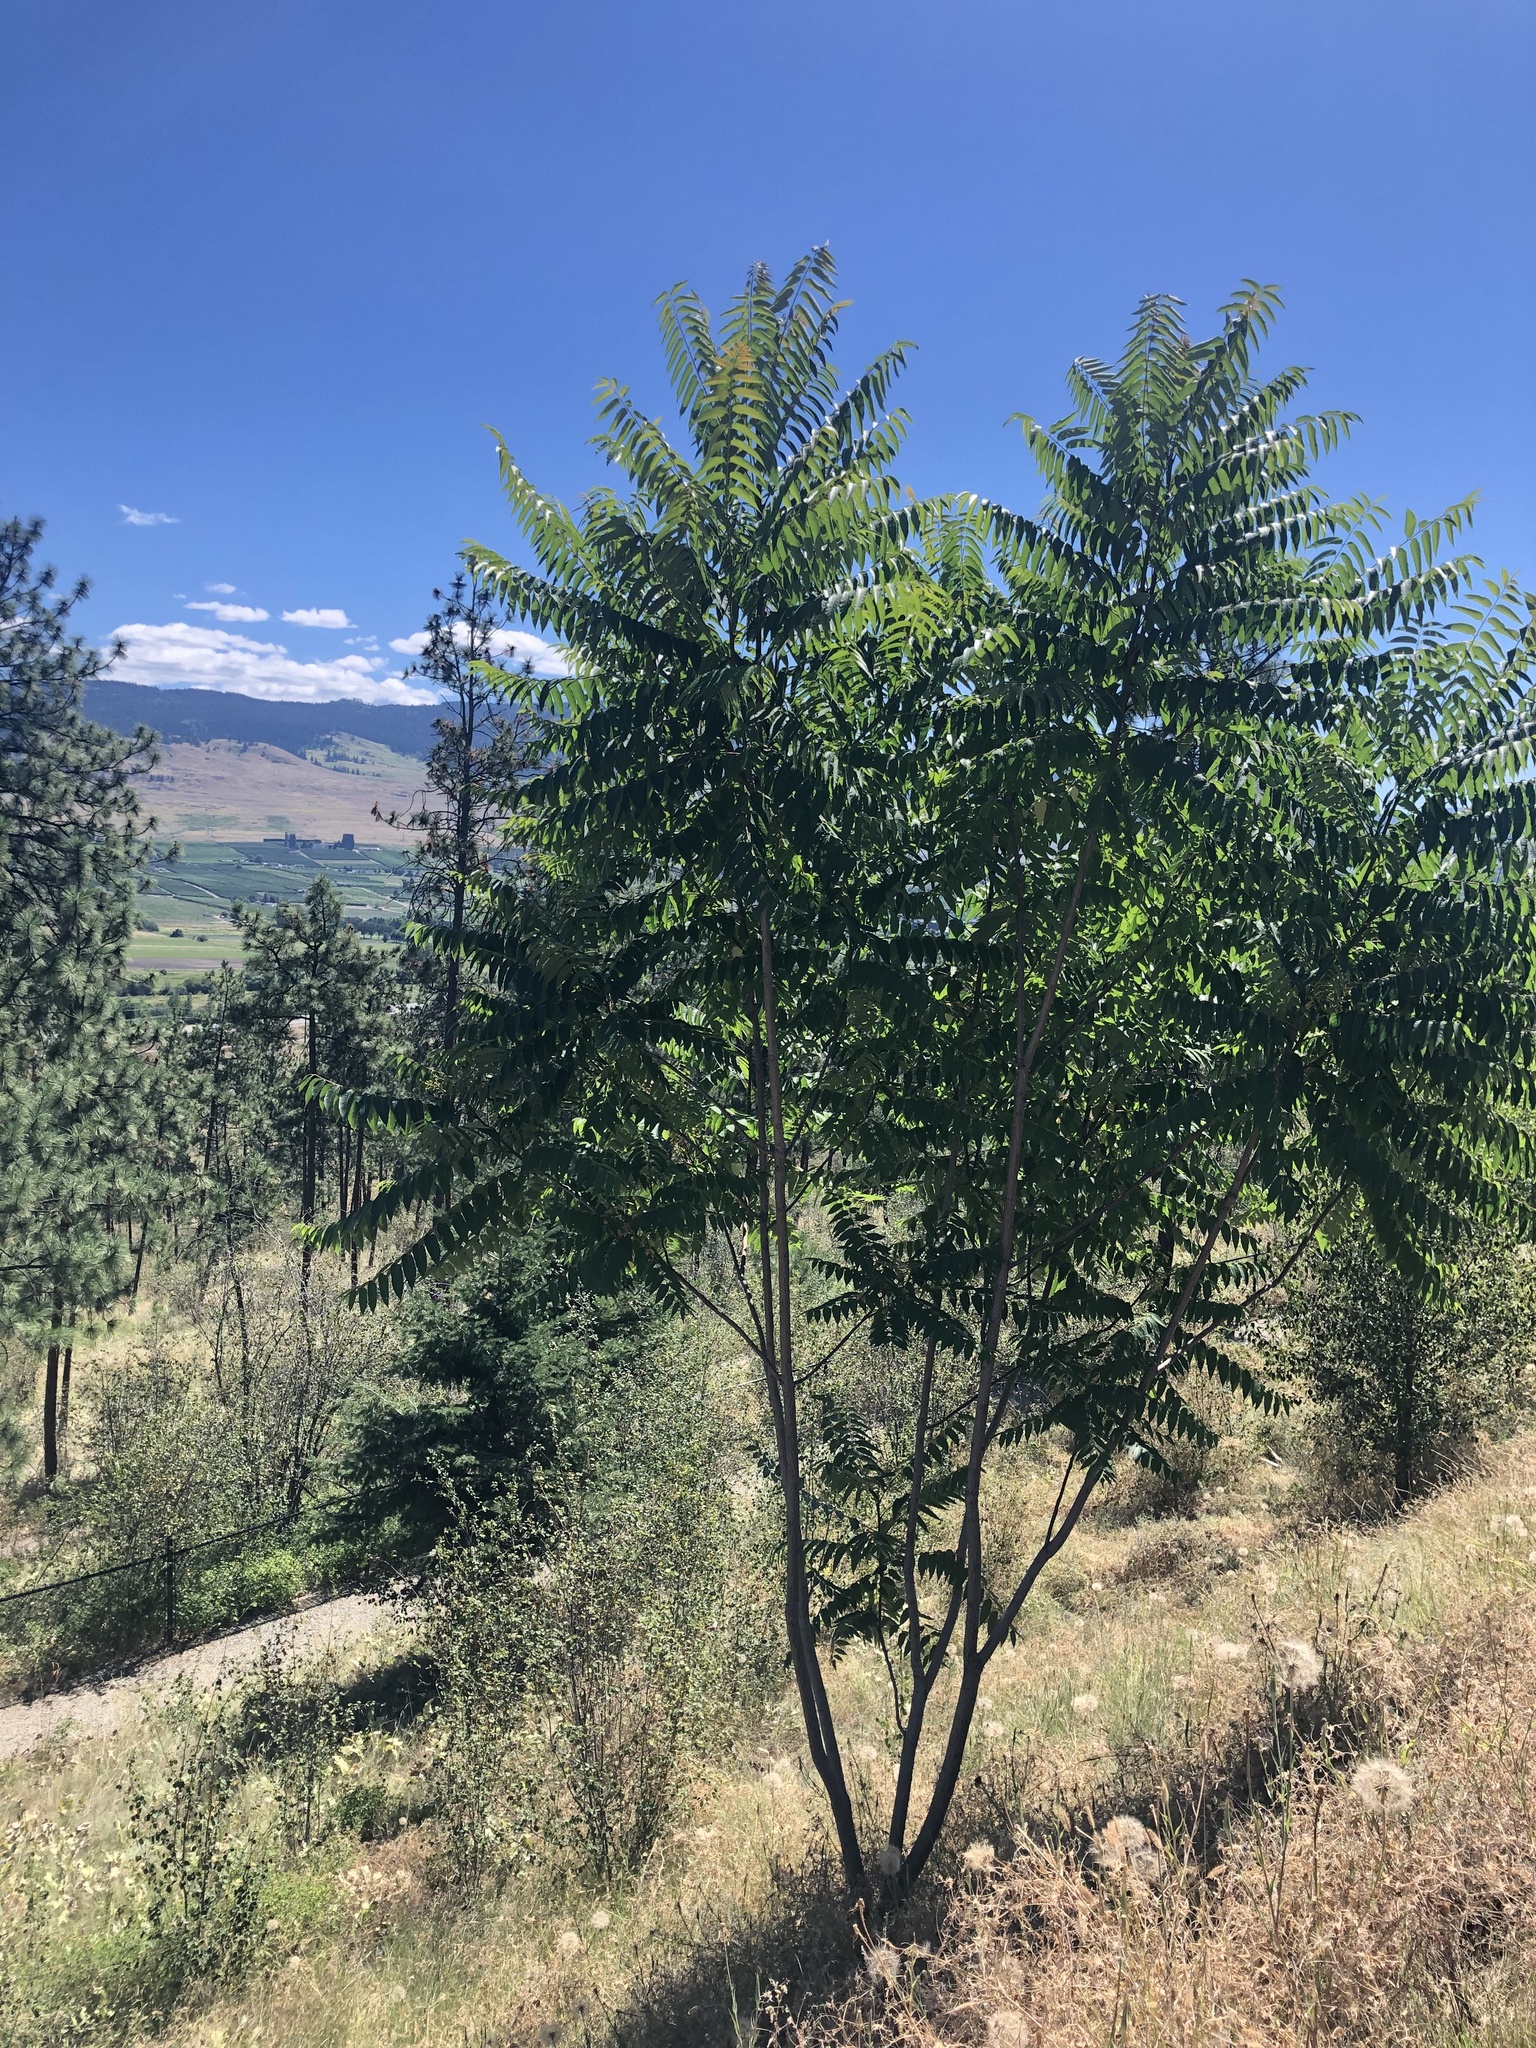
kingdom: Plantae
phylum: Tracheophyta
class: Magnoliopsida
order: Sapindales
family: Simaroubaceae
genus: Ailanthus
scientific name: Ailanthus altissima
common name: Tree-of-heaven
